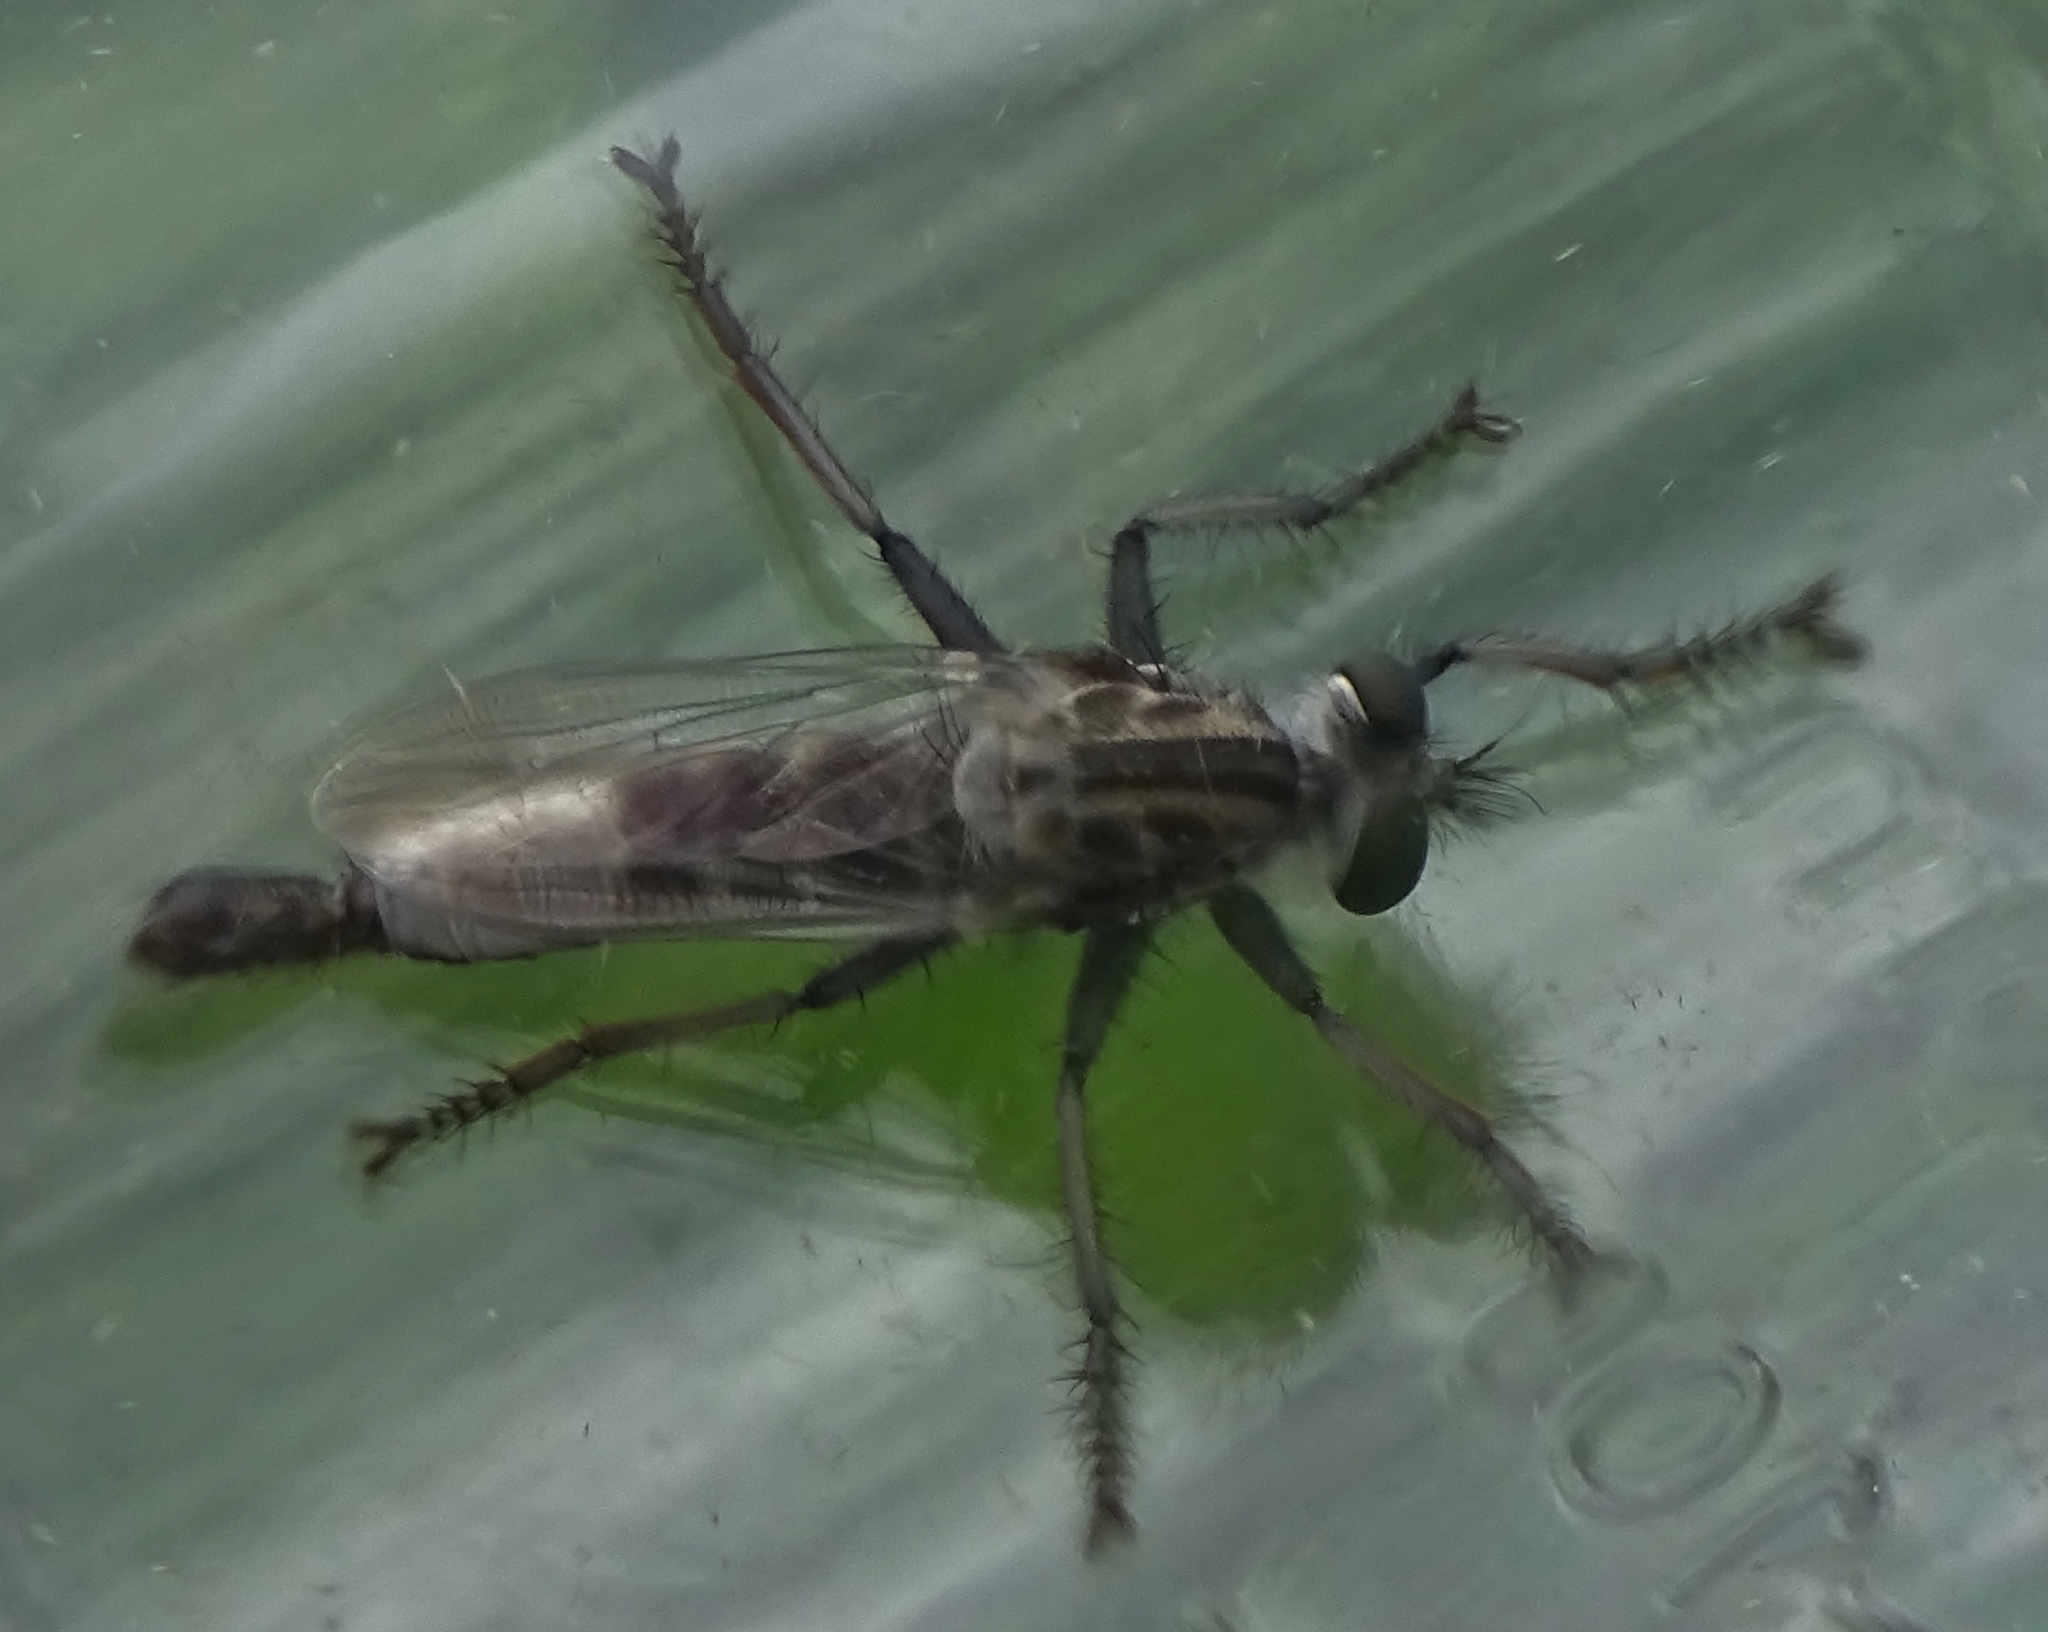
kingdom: Animalia
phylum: Arthropoda
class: Insecta
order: Diptera
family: Asilidae
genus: Efferia
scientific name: Efferia aestuans
